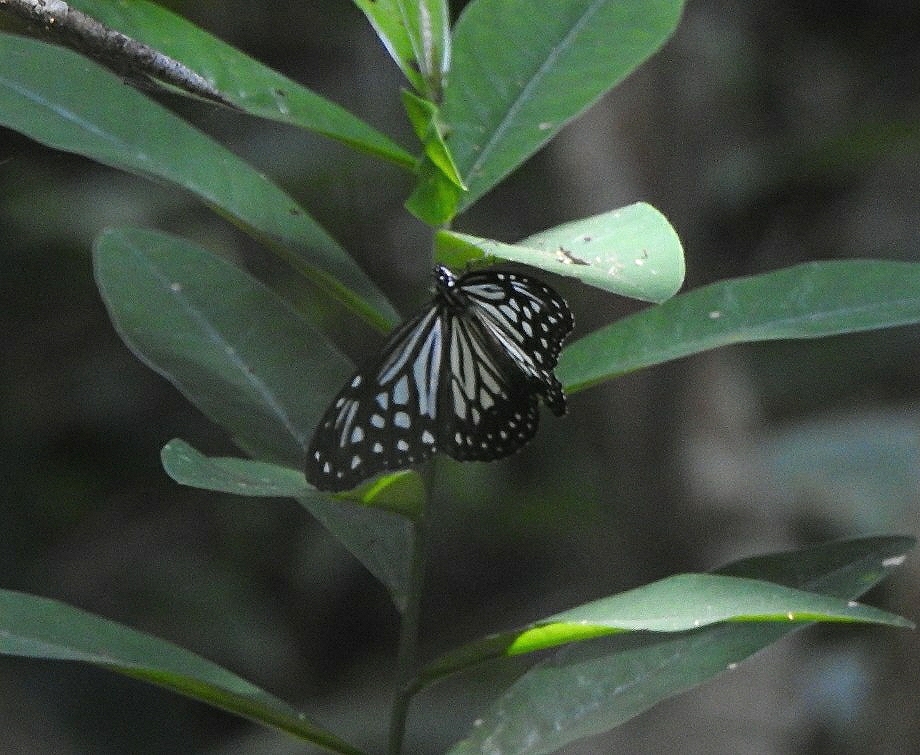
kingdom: Animalia
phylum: Arthropoda
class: Insecta
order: Lepidoptera
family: Nymphalidae
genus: Parantica
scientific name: Parantica aglea
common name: Glassy tiger
